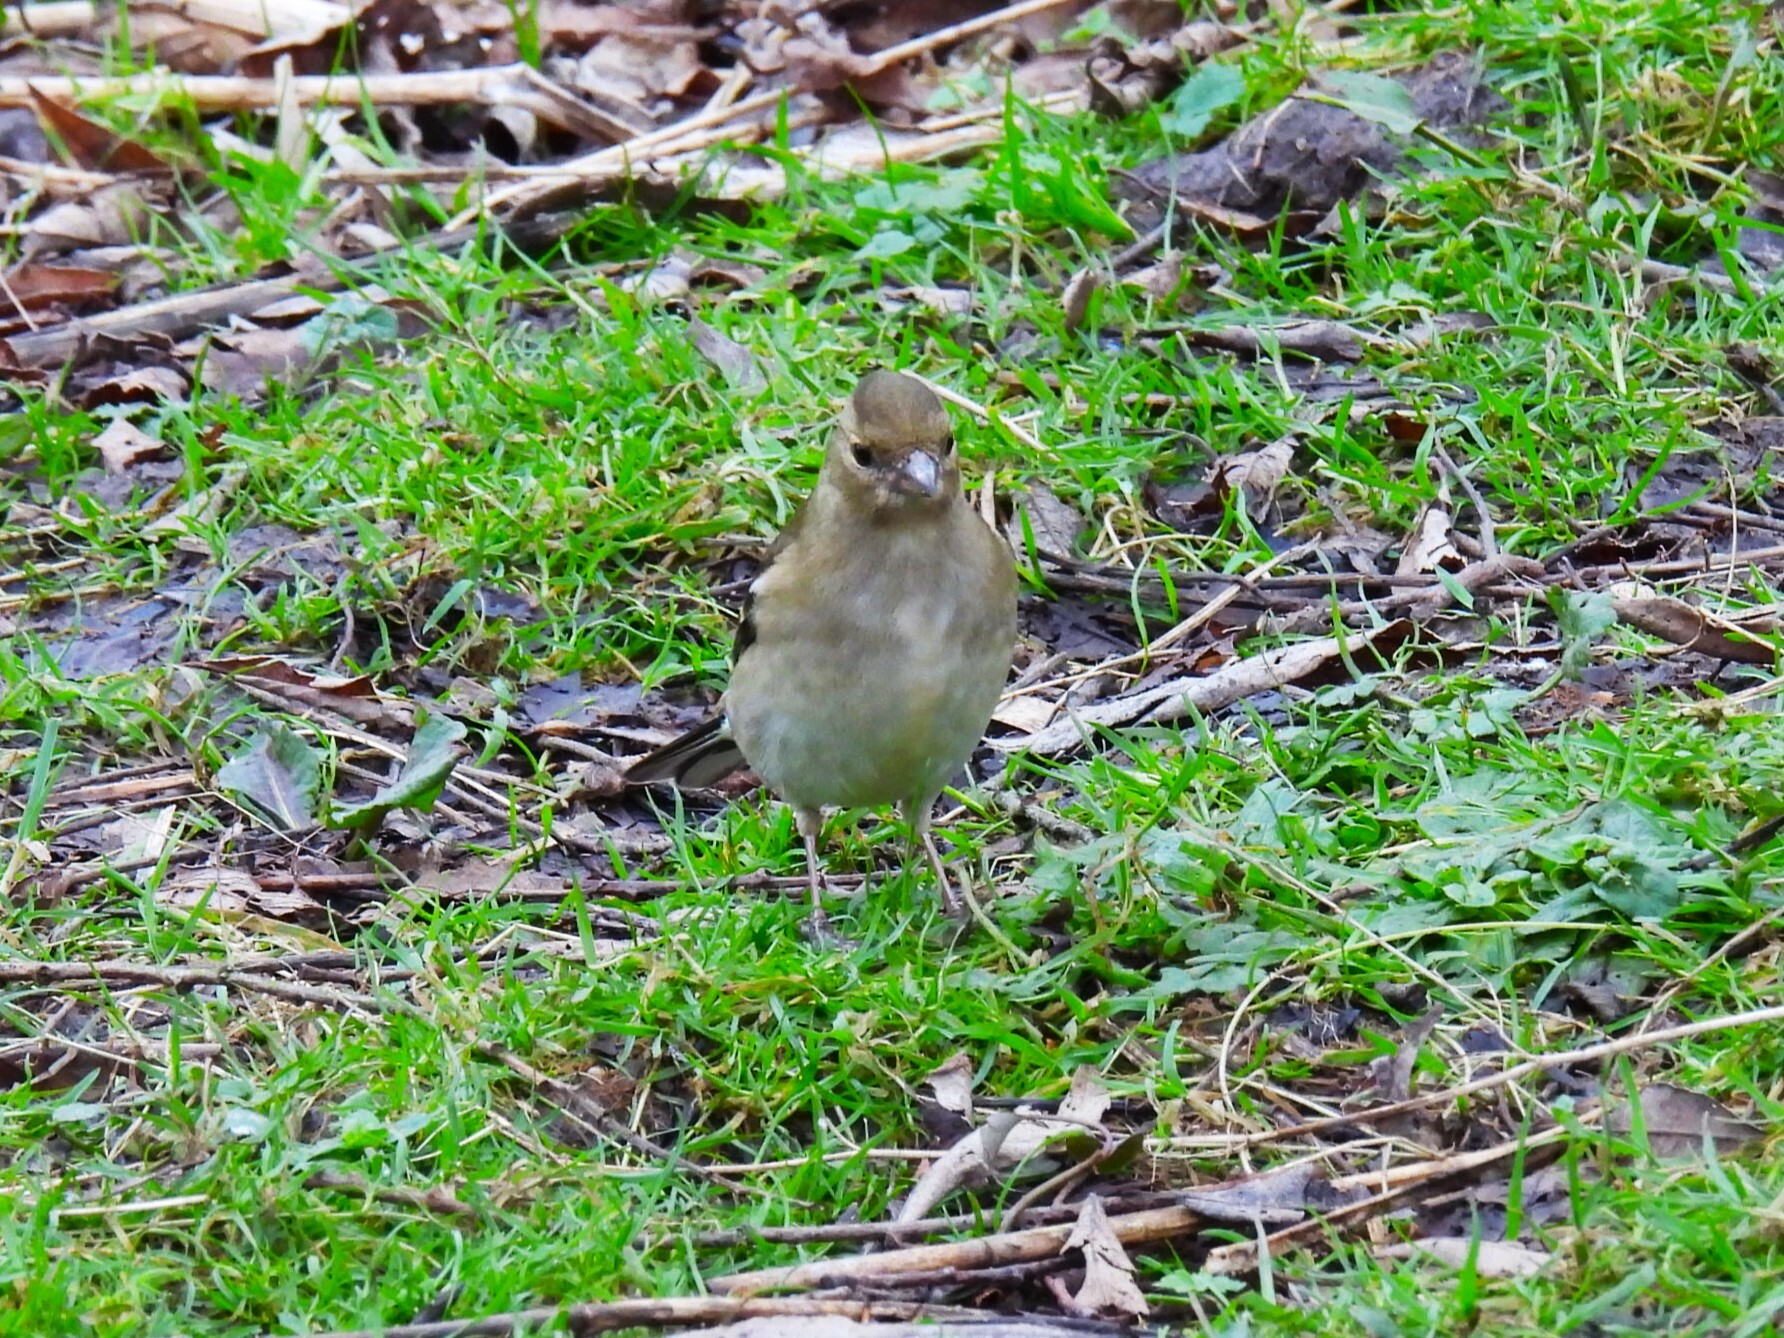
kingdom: Animalia
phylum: Chordata
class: Aves
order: Passeriformes
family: Fringillidae
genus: Fringilla
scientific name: Fringilla coelebs
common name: Common chaffinch
